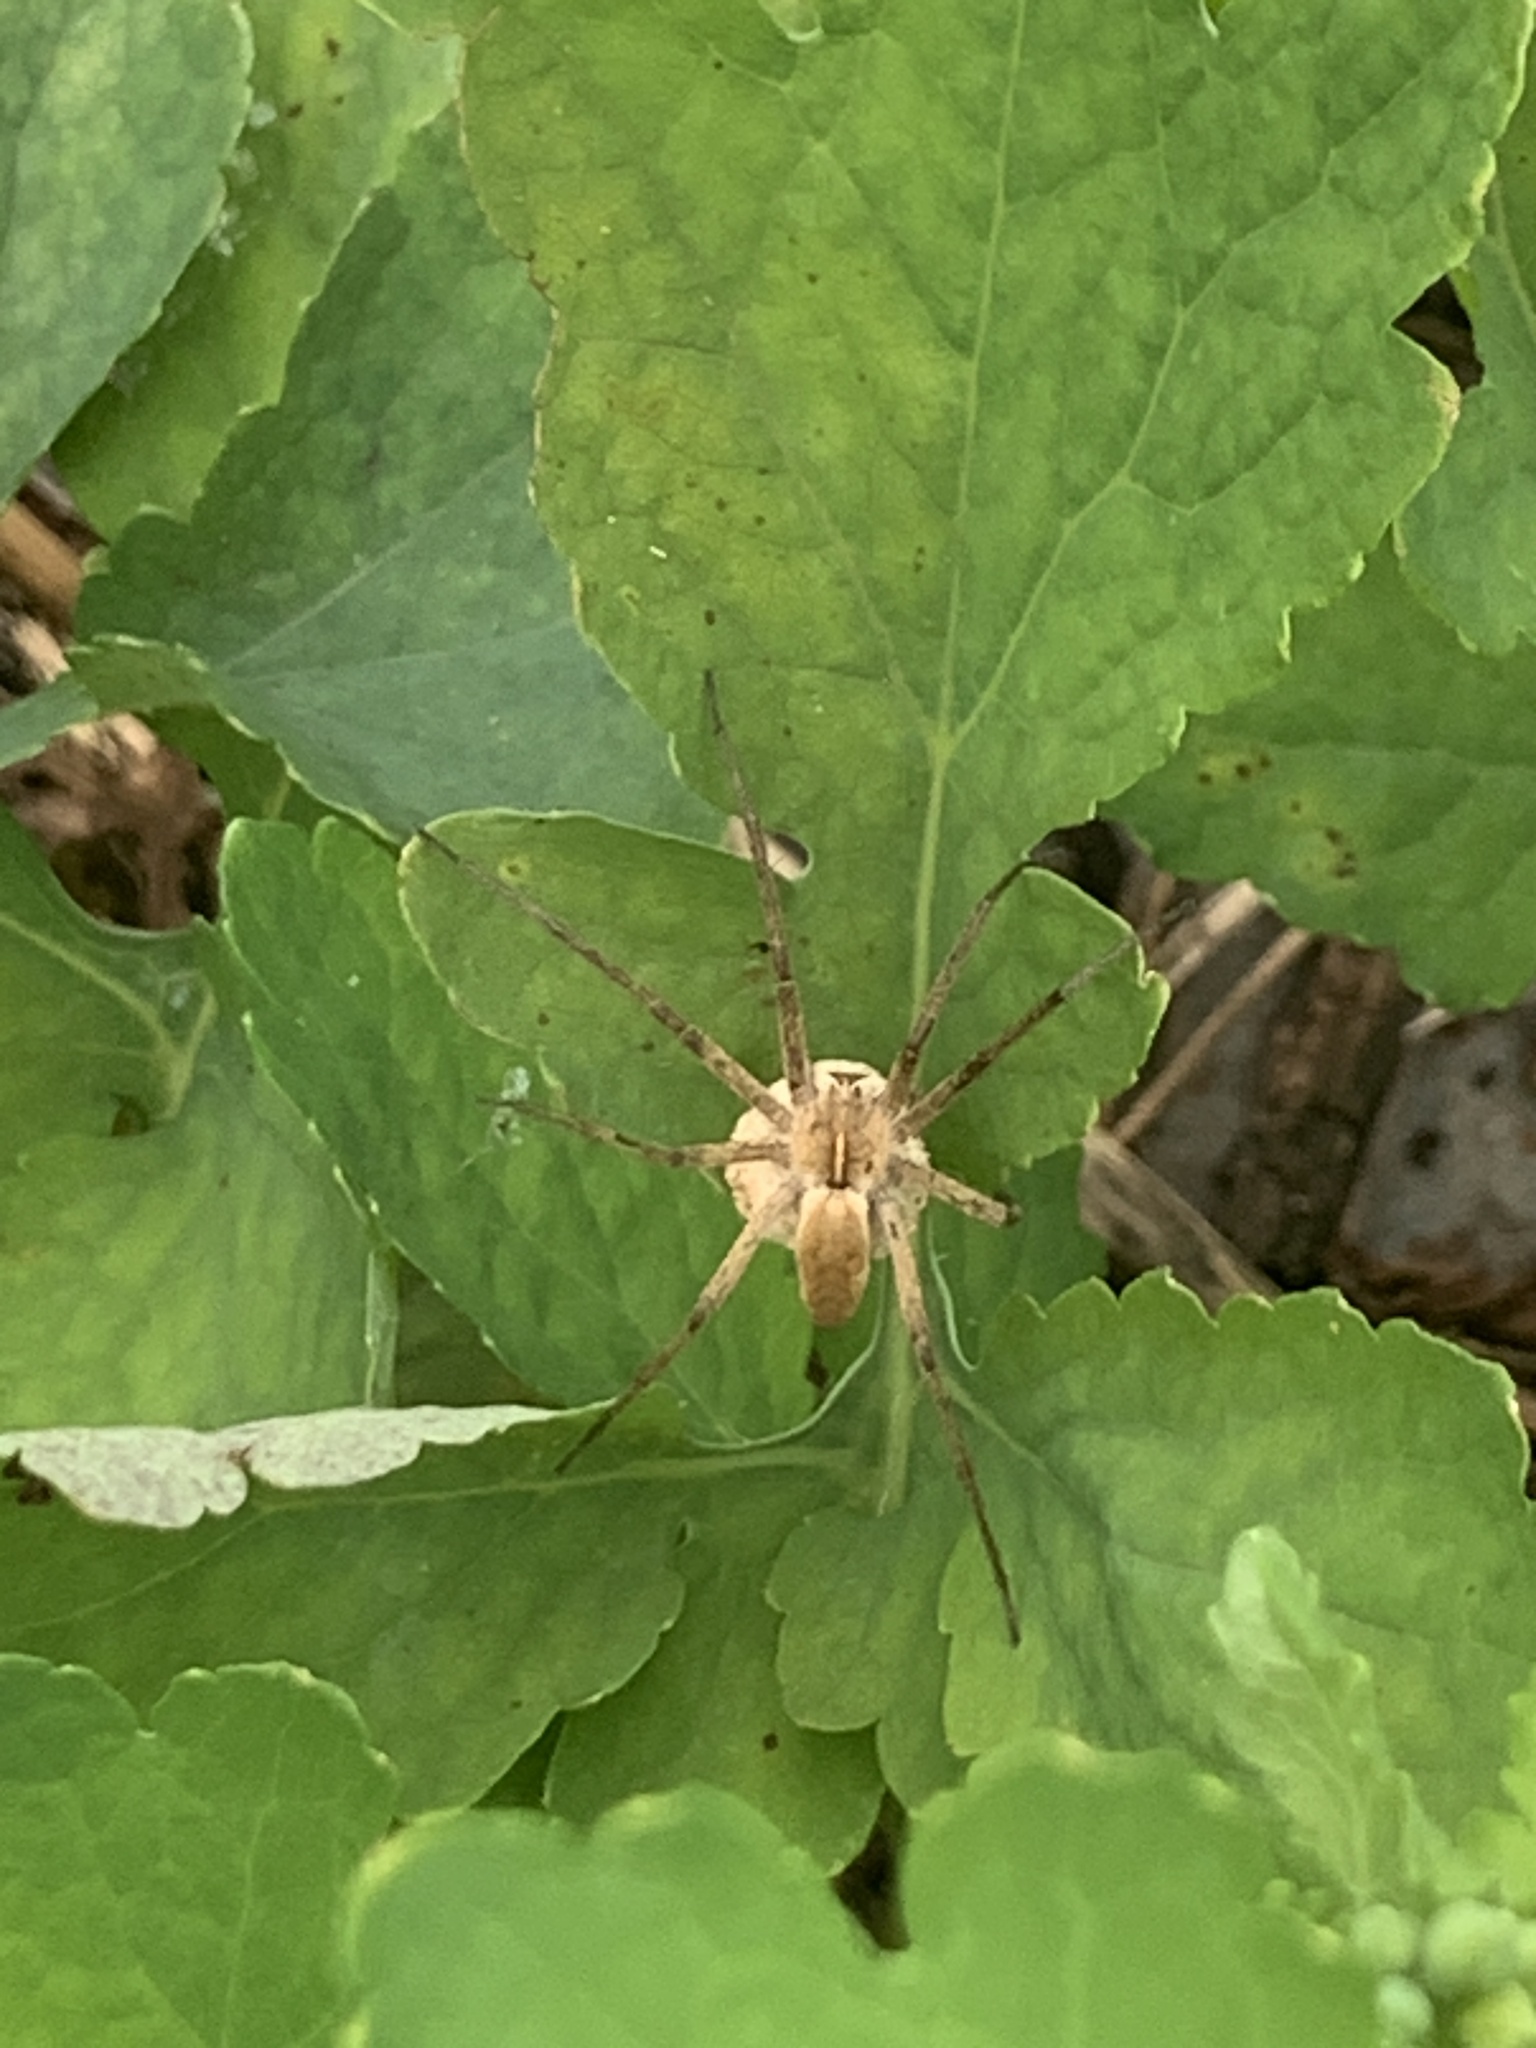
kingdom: Animalia
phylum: Arthropoda
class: Arachnida
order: Araneae
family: Pisauridae
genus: Pisaura
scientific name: Pisaura
